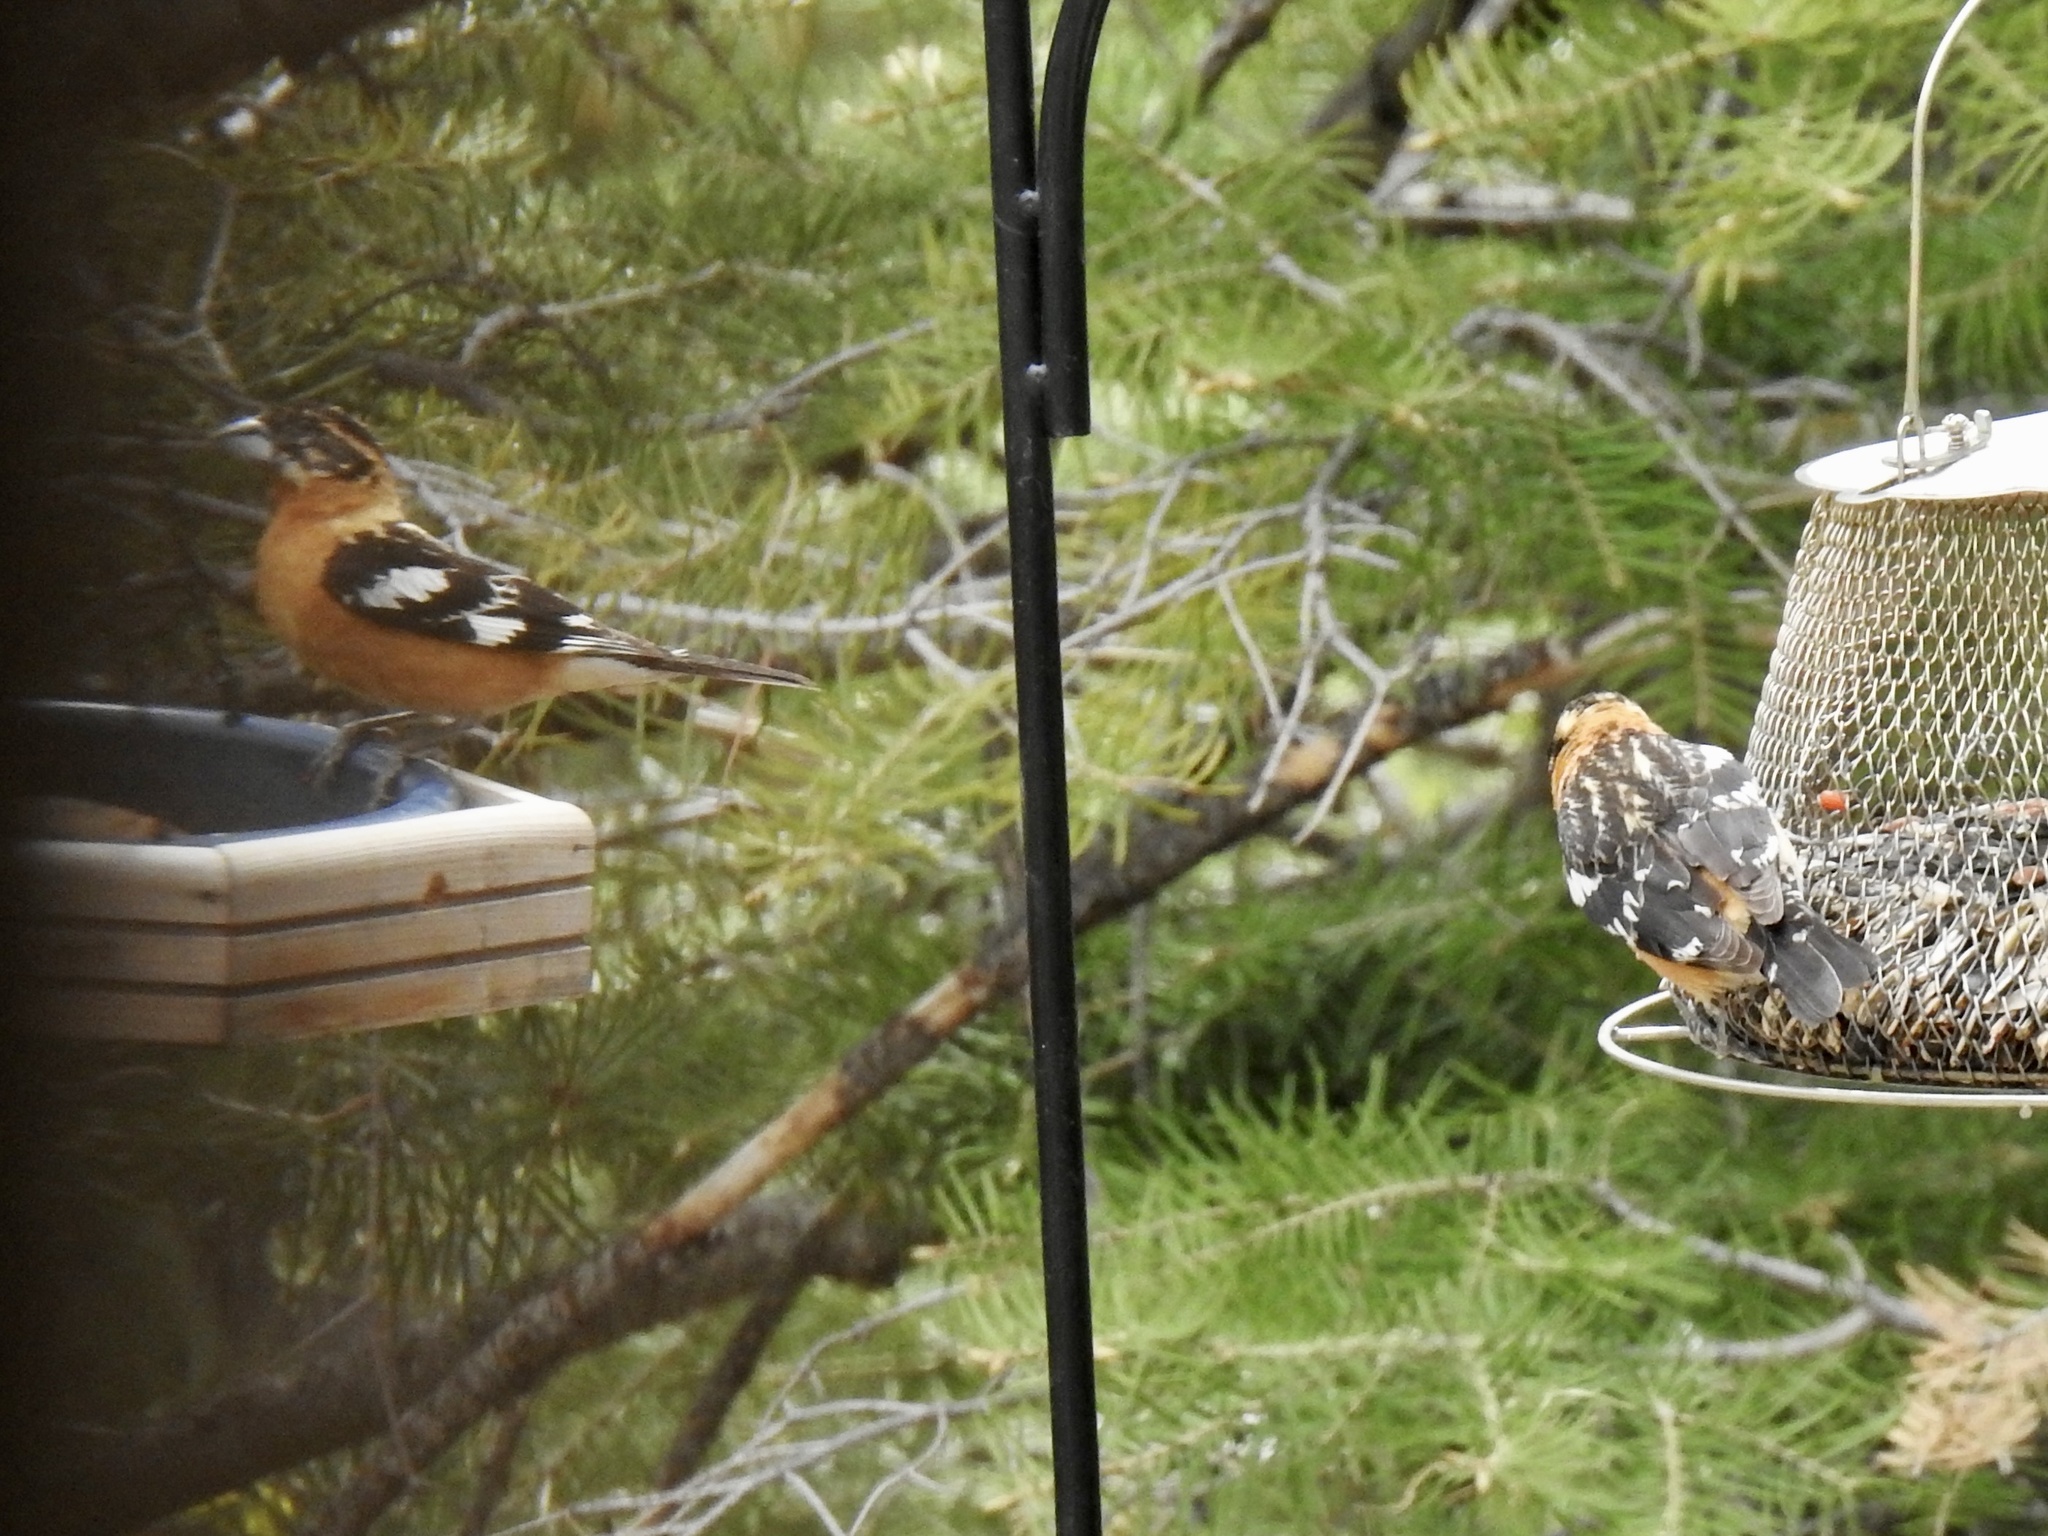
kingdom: Animalia
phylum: Chordata
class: Aves
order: Passeriformes
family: Cardinalidae
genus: Pheucticus
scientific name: Pheucticus melanocephalus
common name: Black-headed grosbeak
